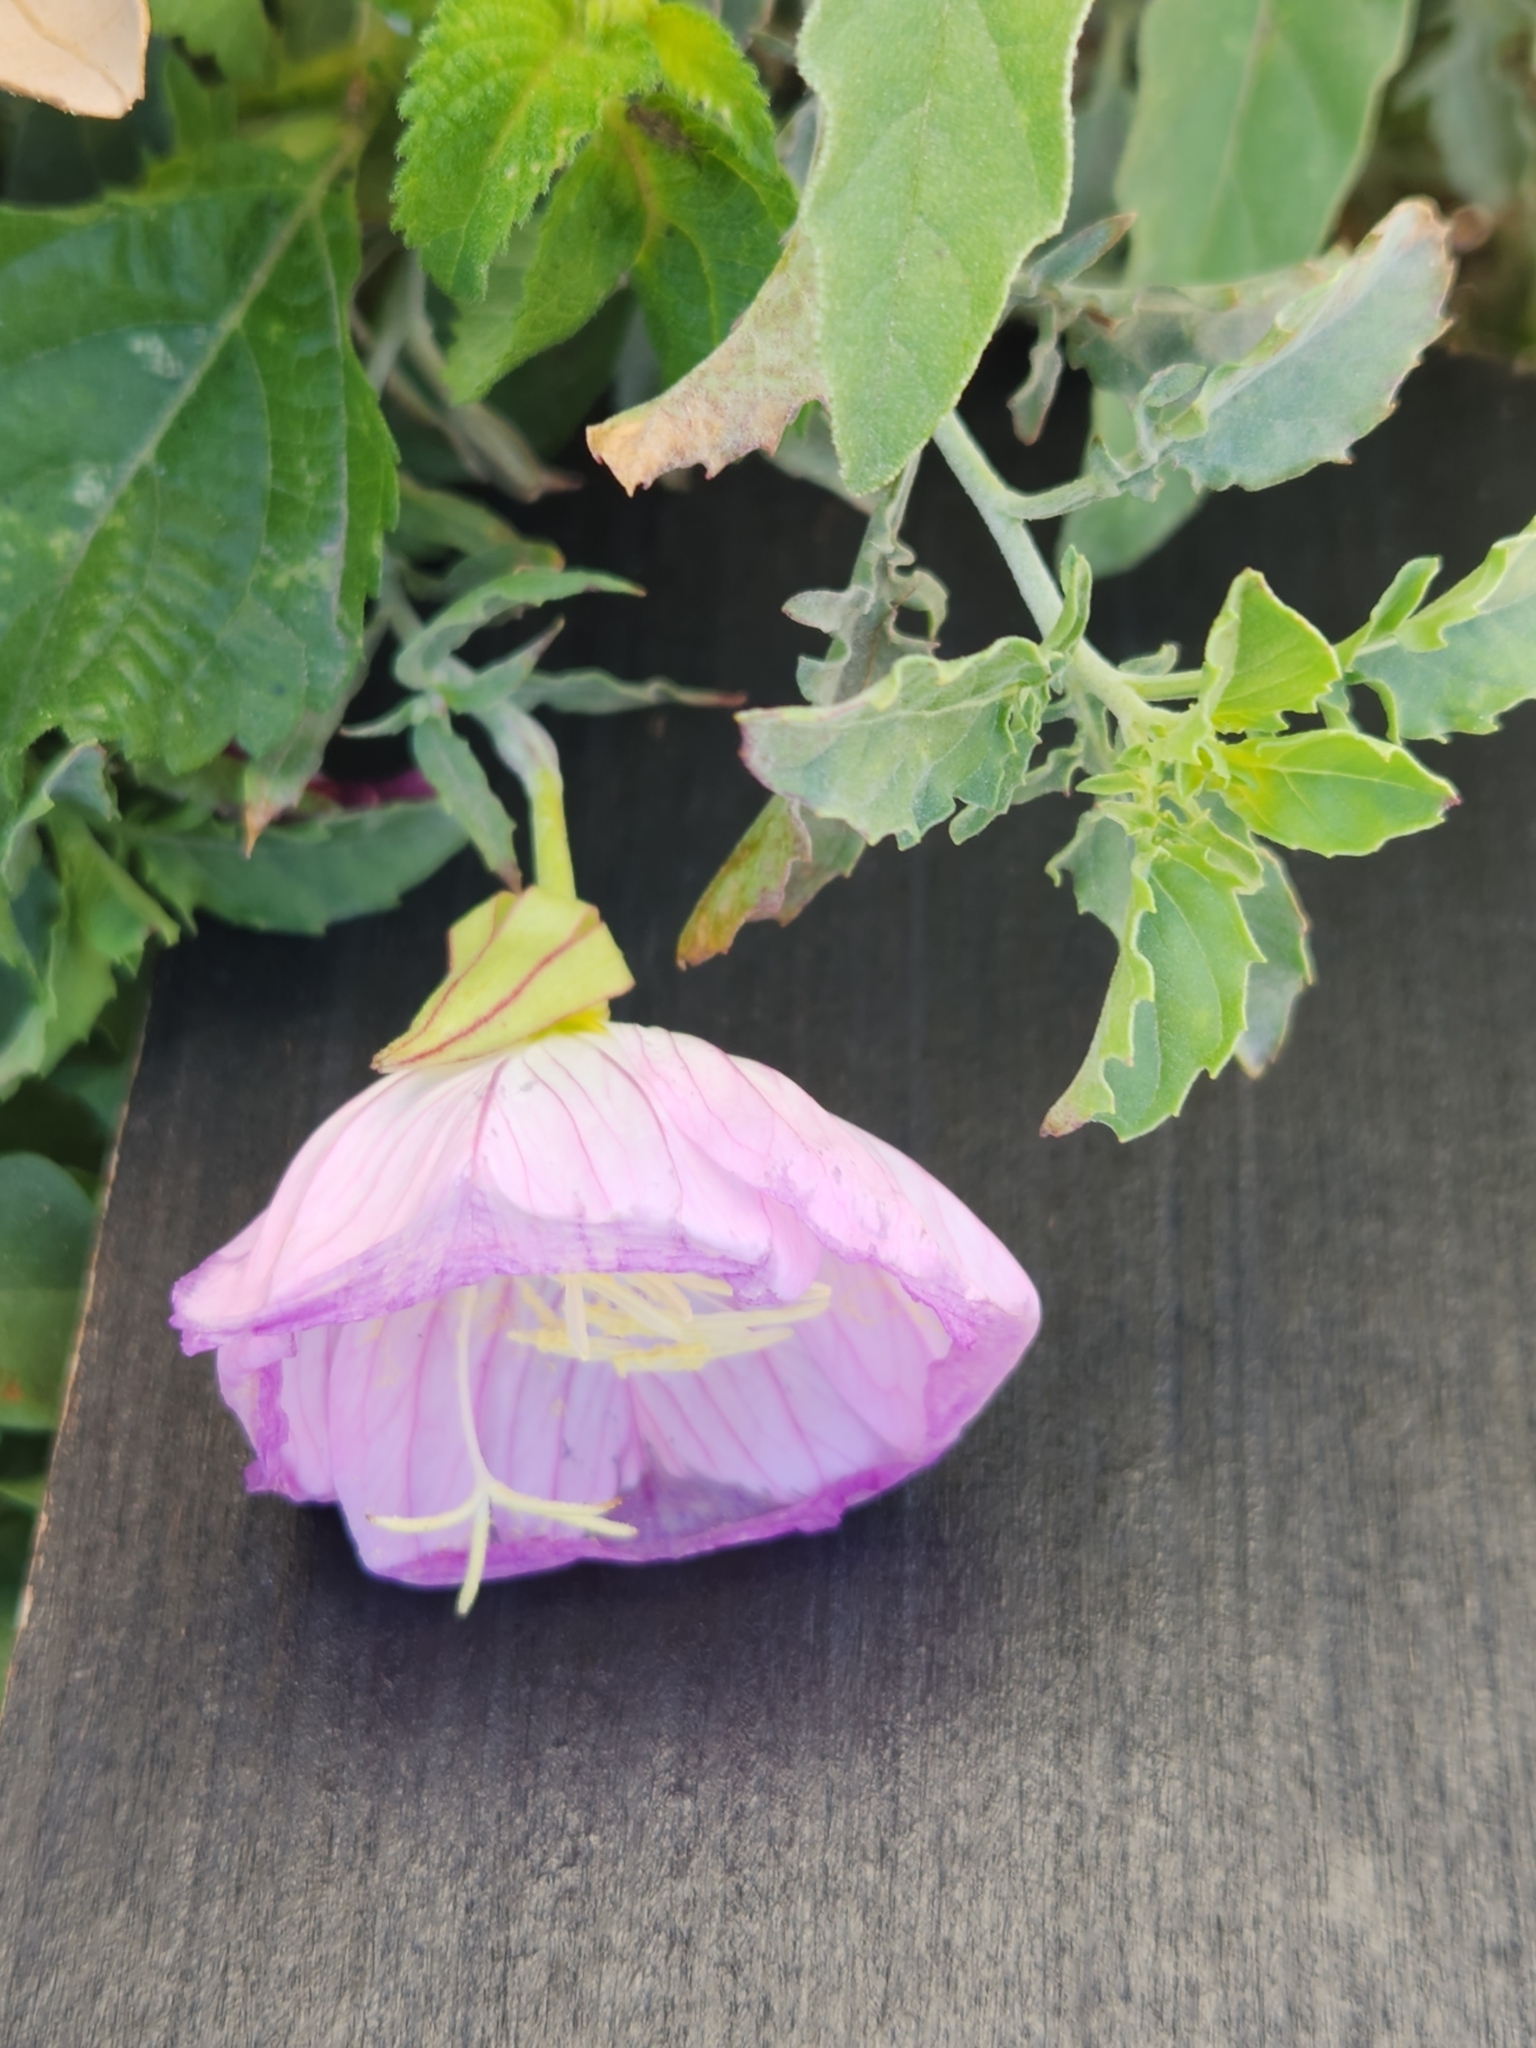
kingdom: Plantae
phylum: Tracheophyta
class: Magnoliopsida
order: Myrtales
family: Onagraceae
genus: Oenothera
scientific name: Oenothera speciosa
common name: White evening-primrose
